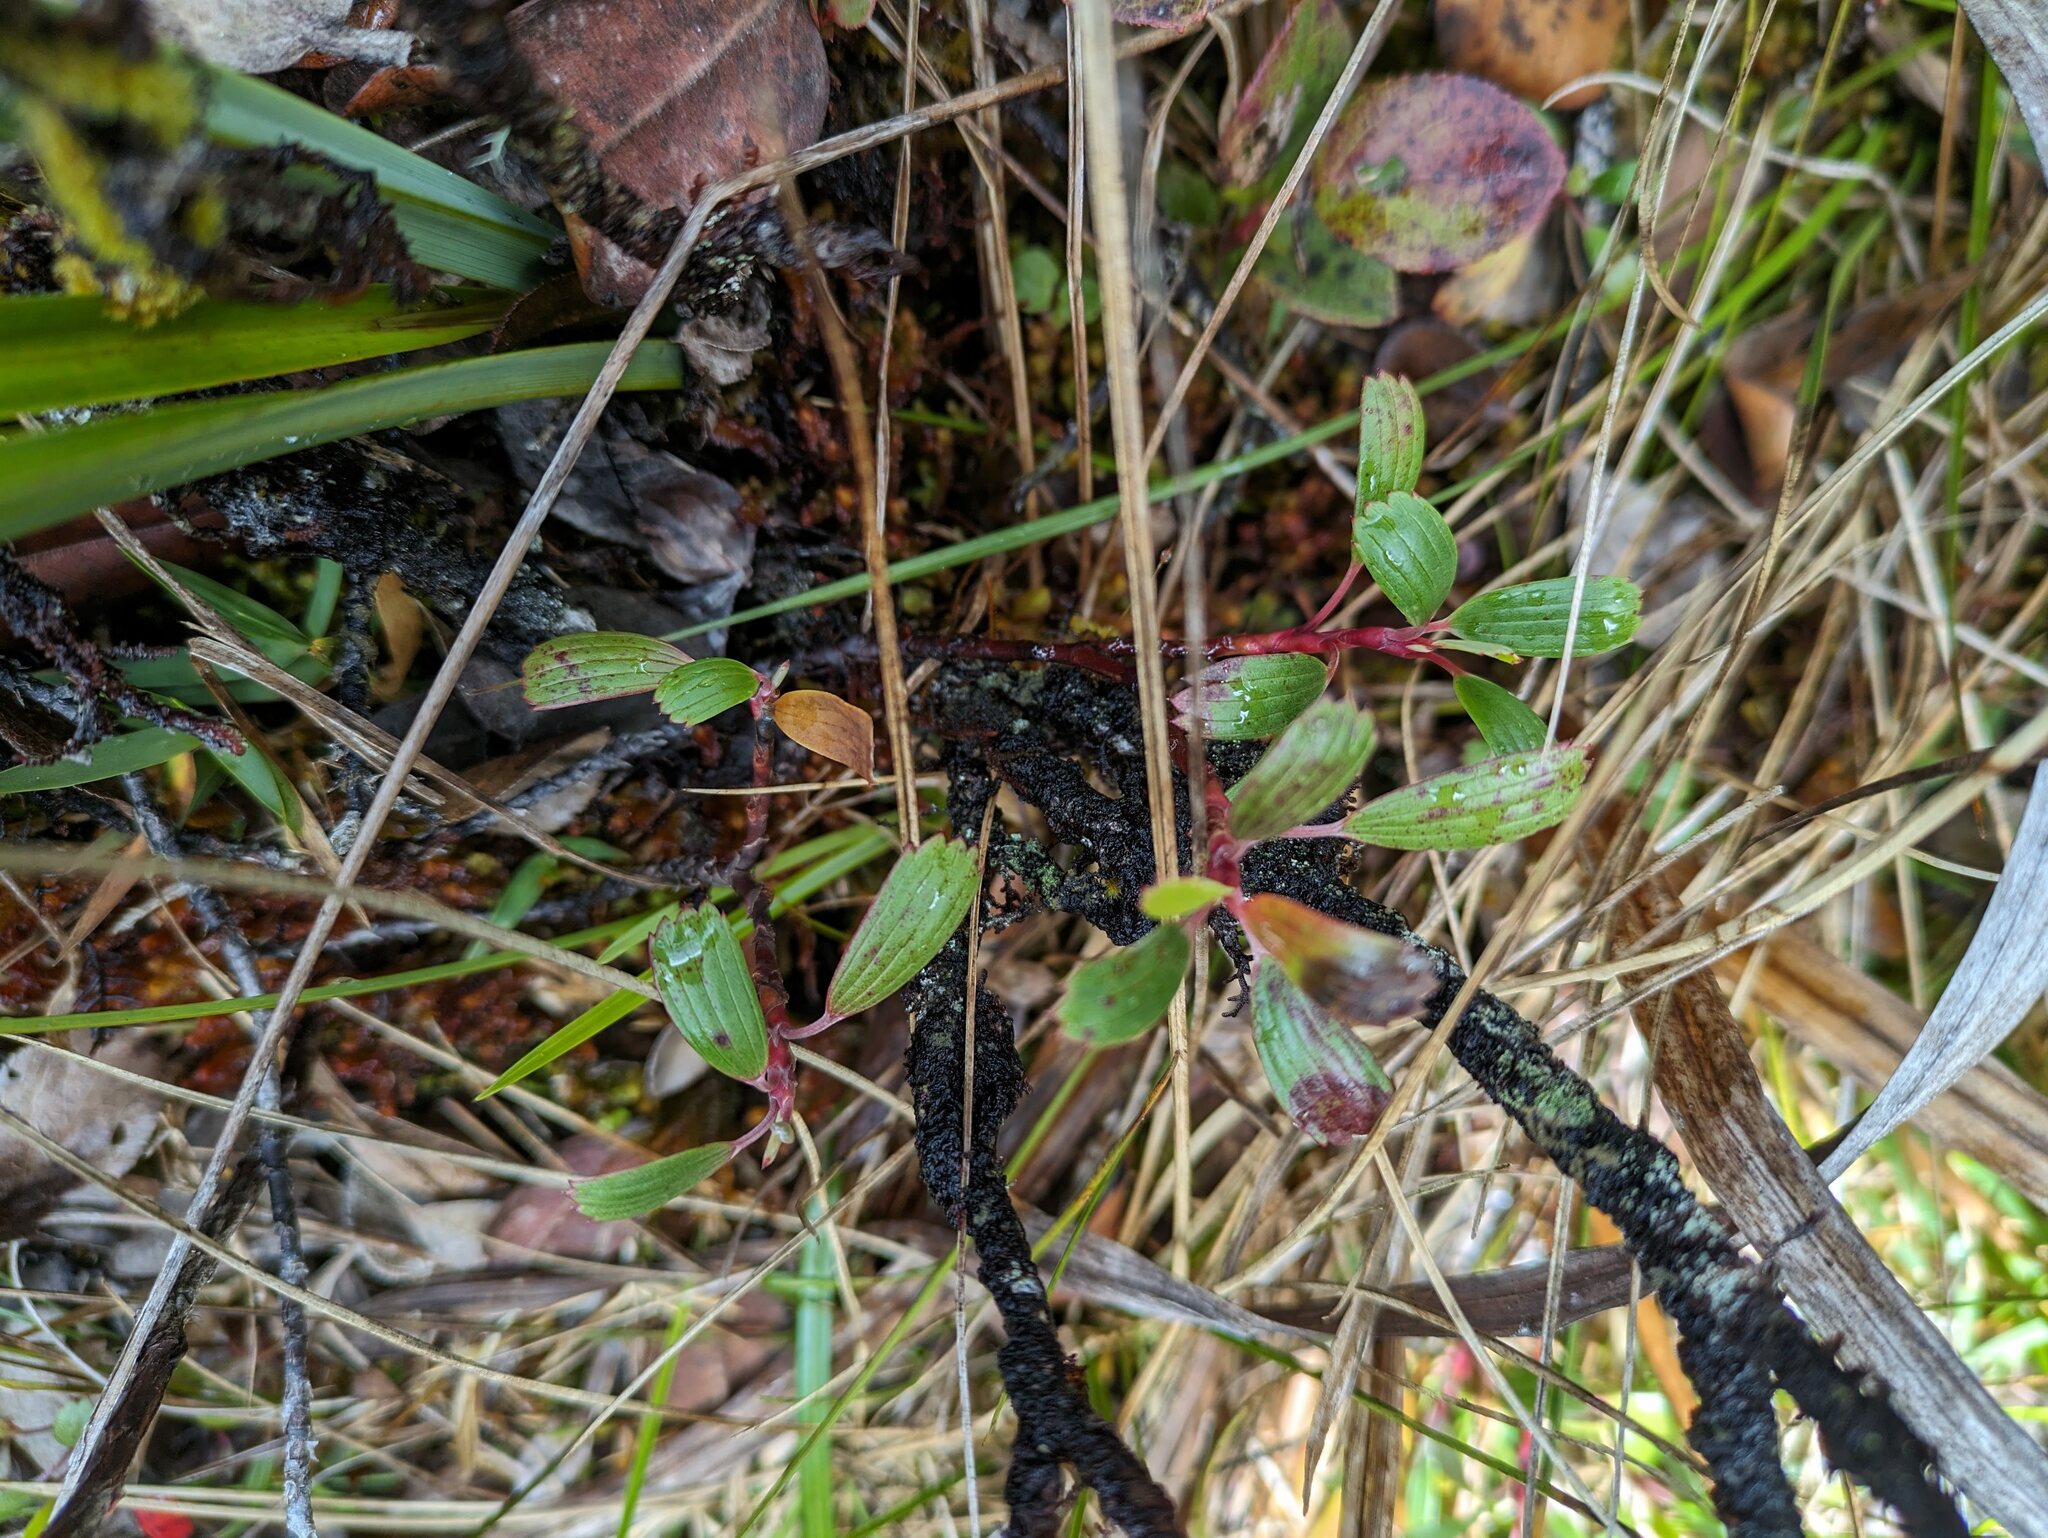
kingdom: Plantae
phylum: Tracheophyta
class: Magnoliopsida
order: Geraniales
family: Geraniaceae
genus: Geranium
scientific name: Geranium kauaiense
